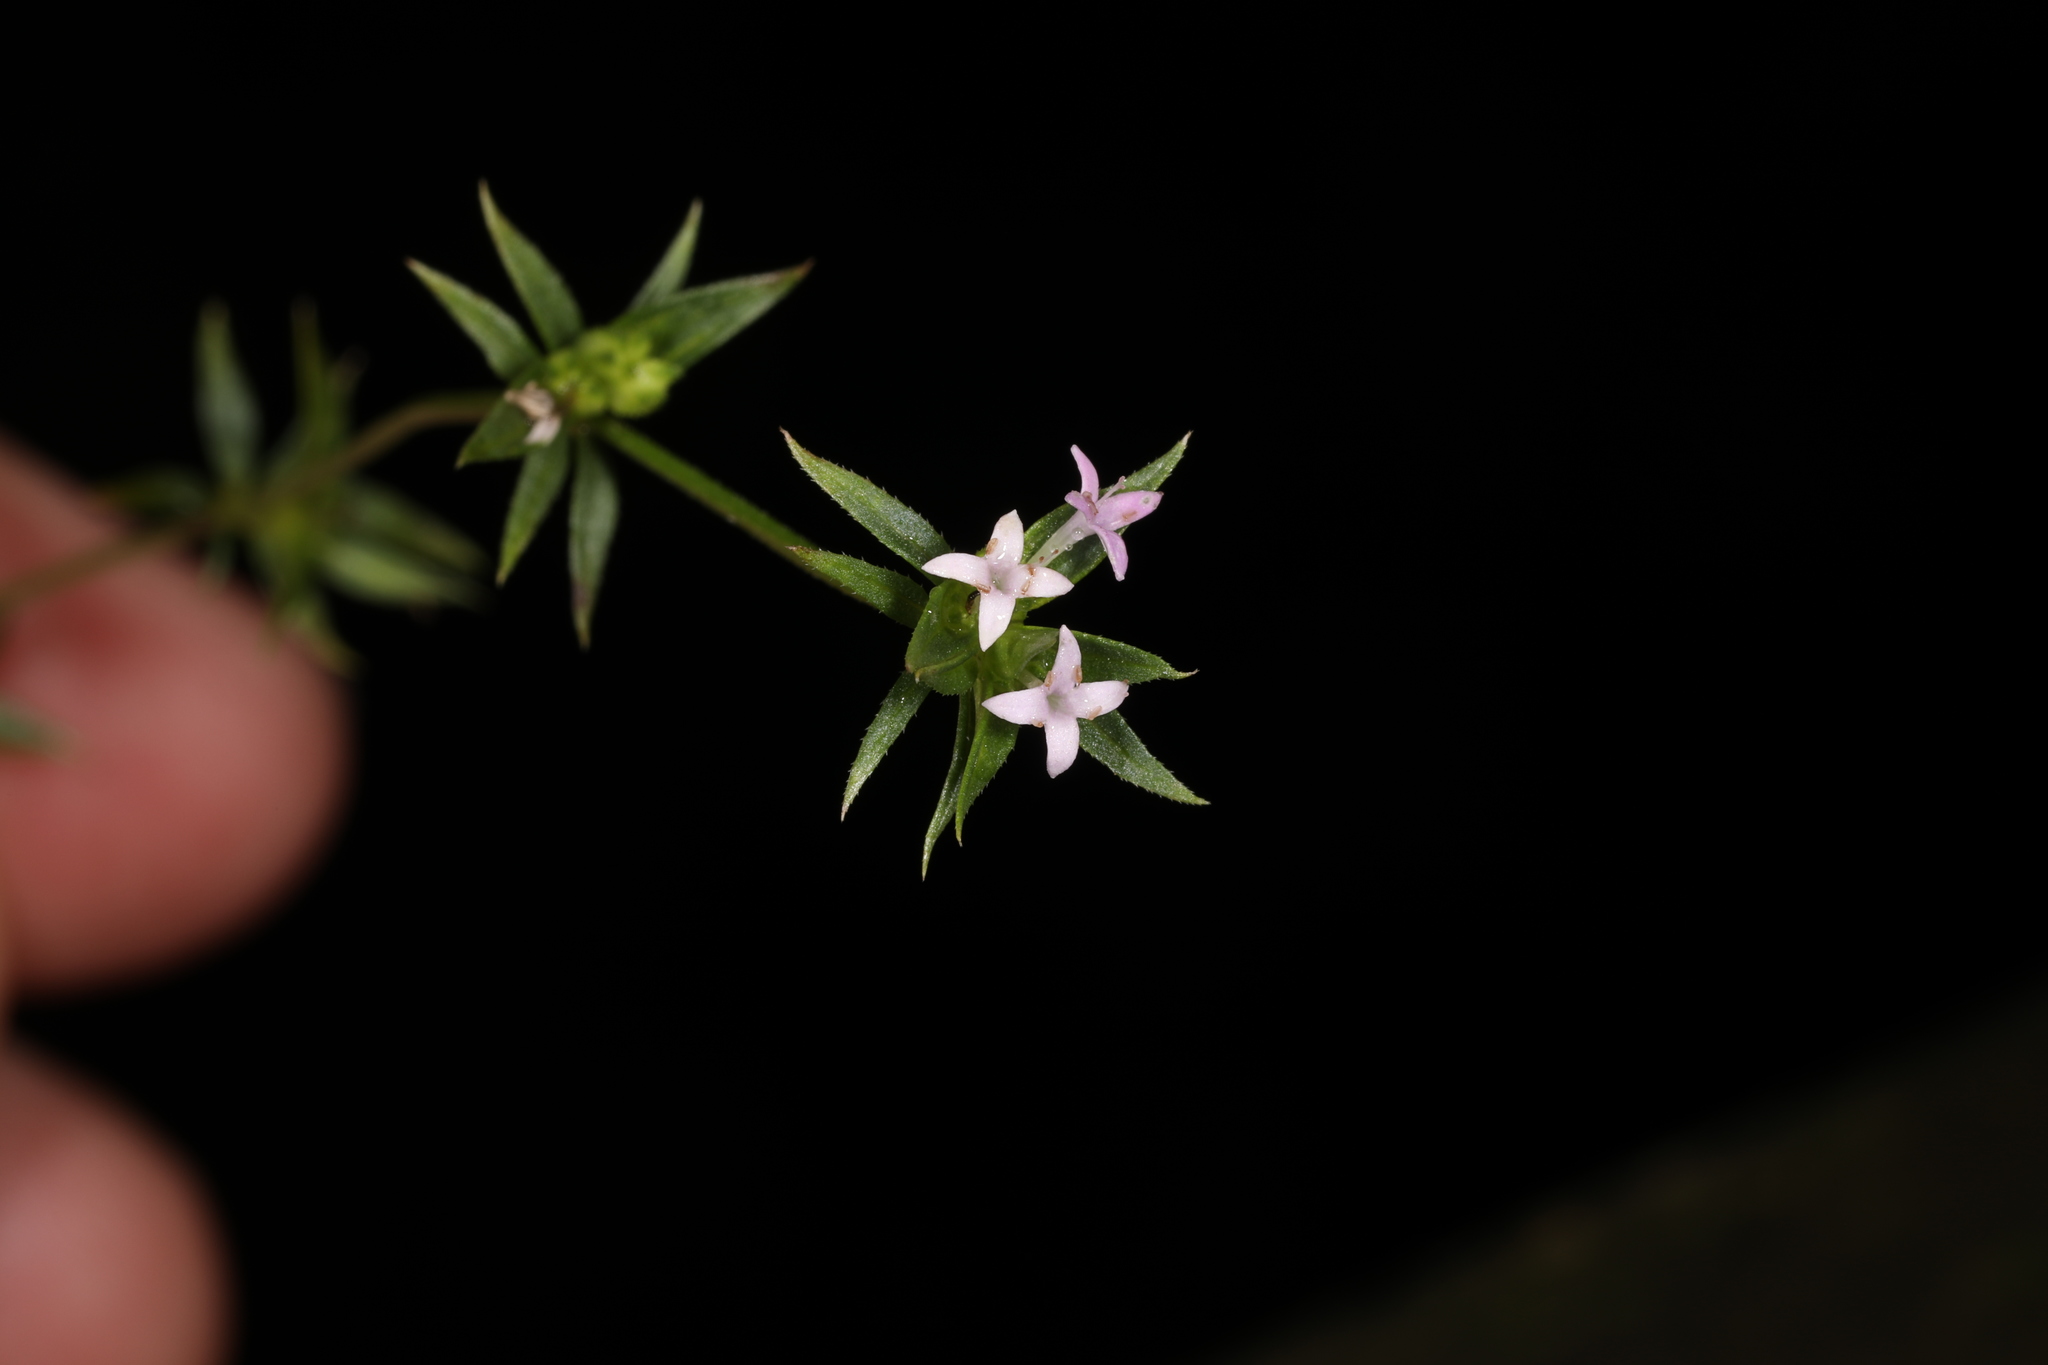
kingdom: Plantae
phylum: Tracheophyta
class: Magnoliopsida
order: Gentianales
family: Rubiaceae
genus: Sherardia
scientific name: Sherardia arvensis
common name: Field madder
